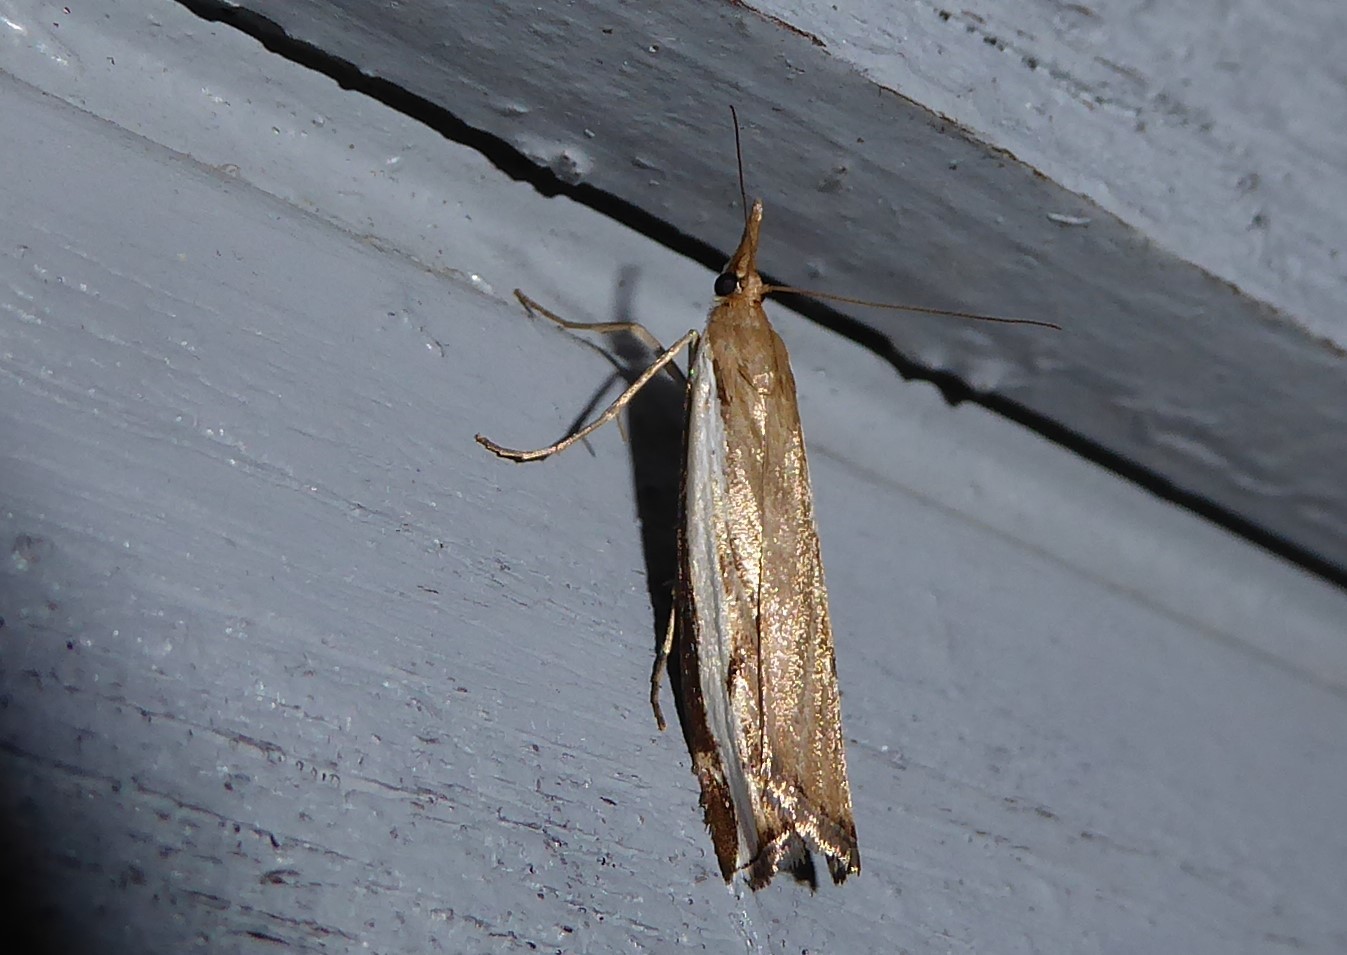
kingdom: Animalia
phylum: Arthropoda
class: Insecta
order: Lepidoptera
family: Crambidae
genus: Orocrambus
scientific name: Orocrambus flexuosellus
